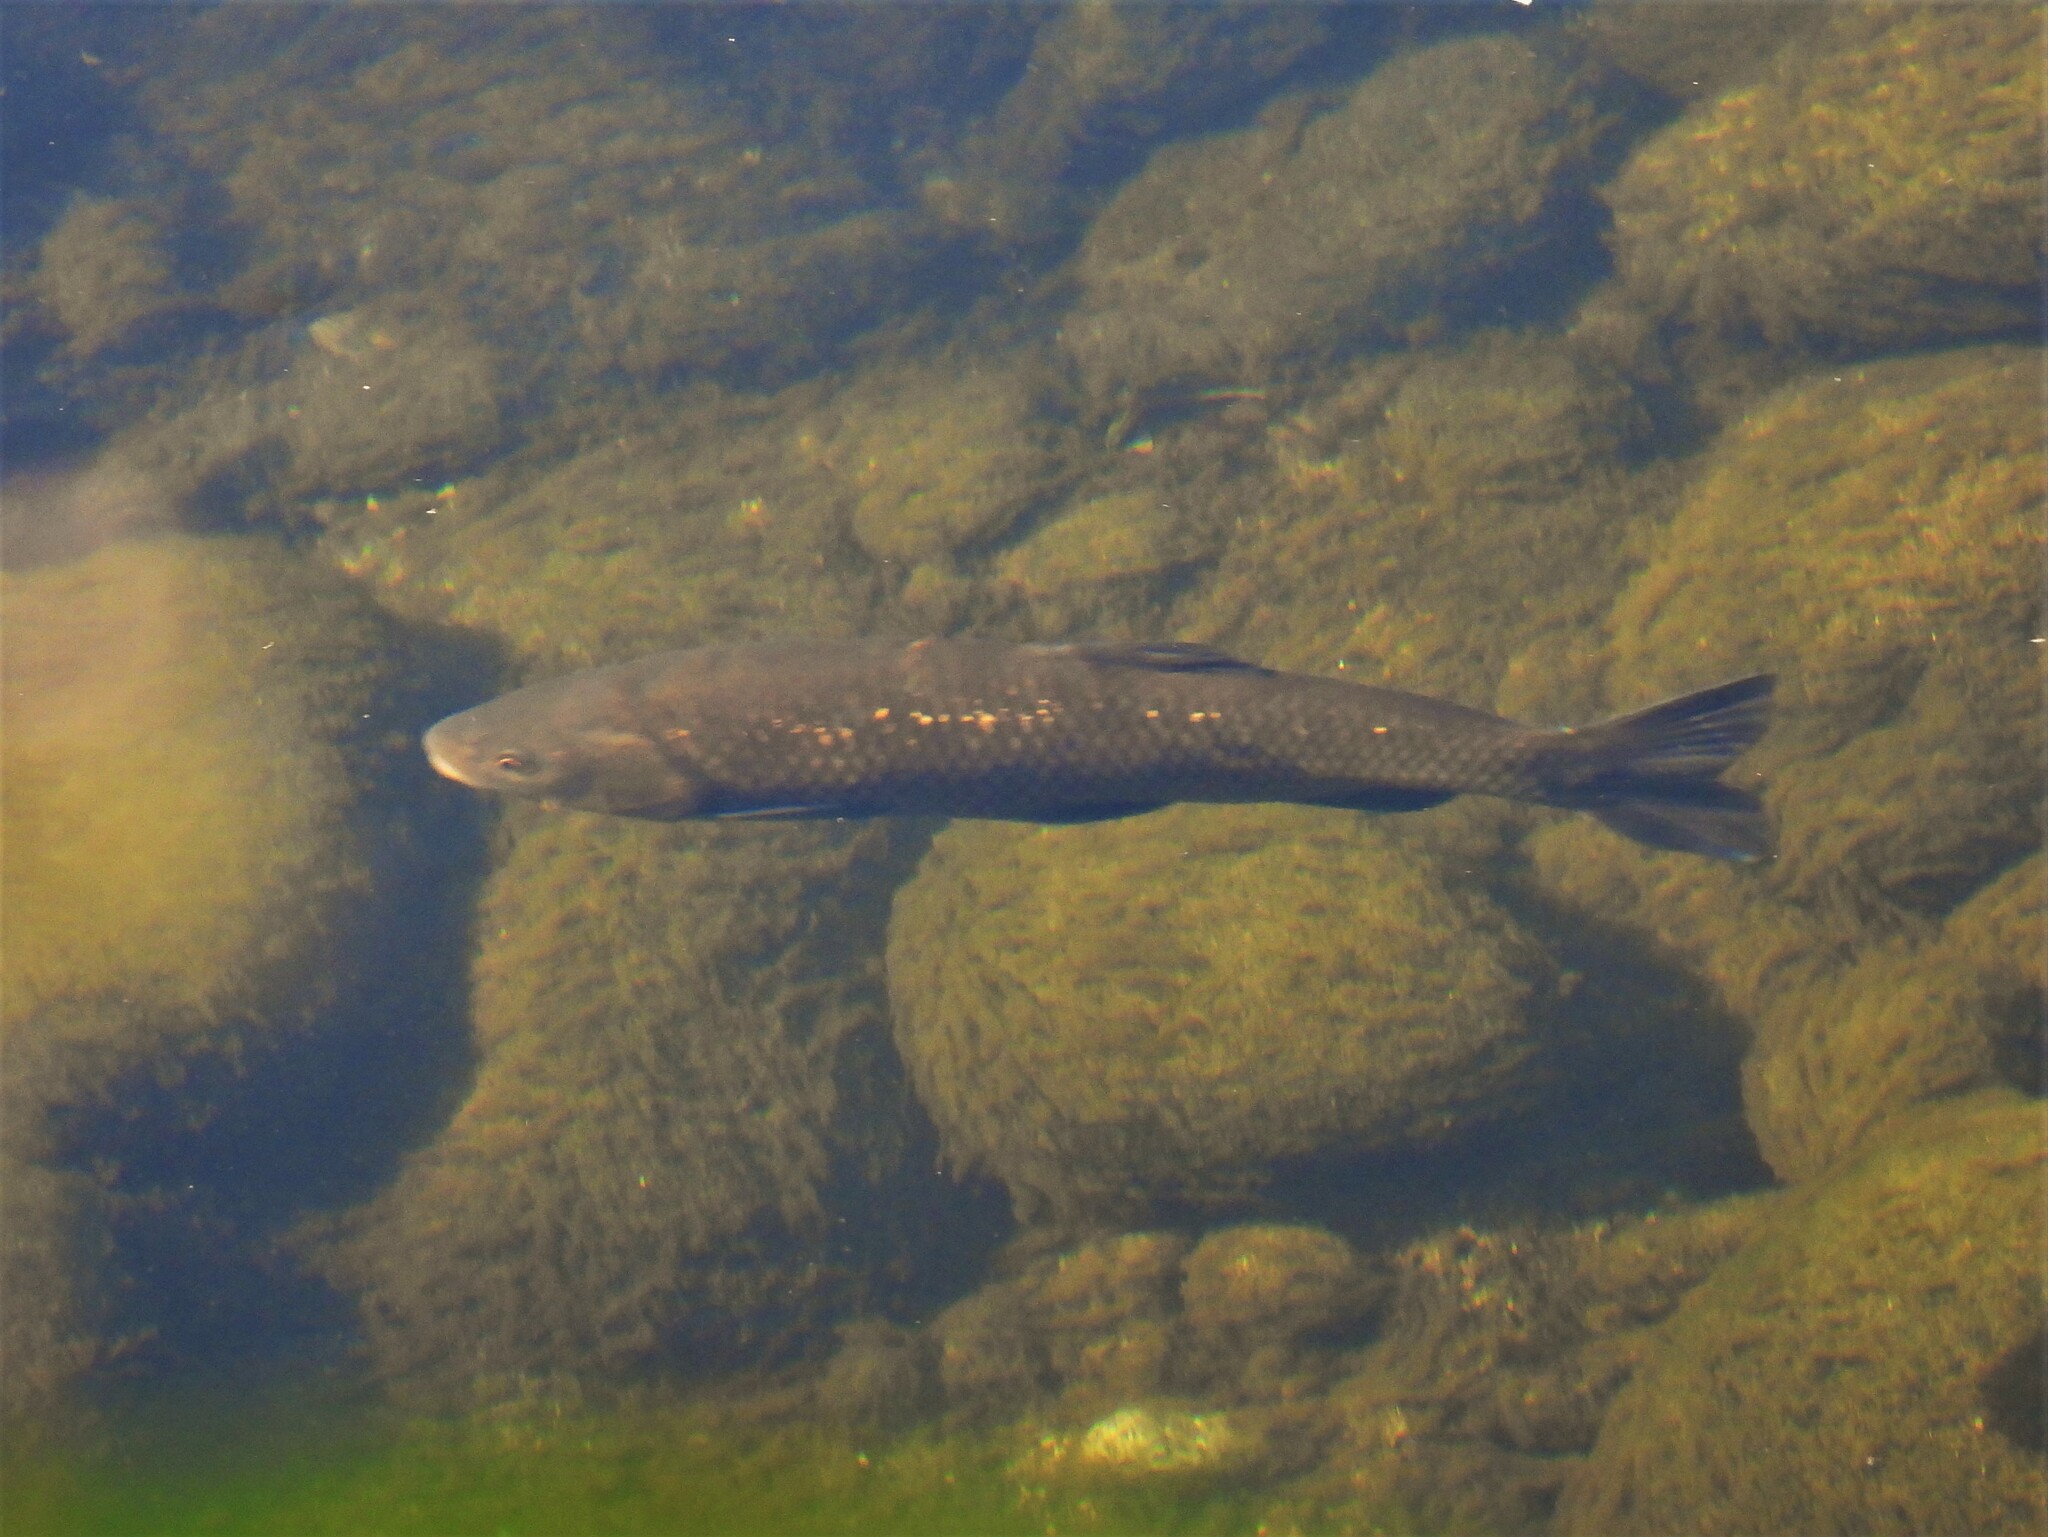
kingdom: Animalia
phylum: Chordata
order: Cypriniformes
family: Cyprinidae
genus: Squalius
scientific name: Squalius squalus
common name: Italian chub
